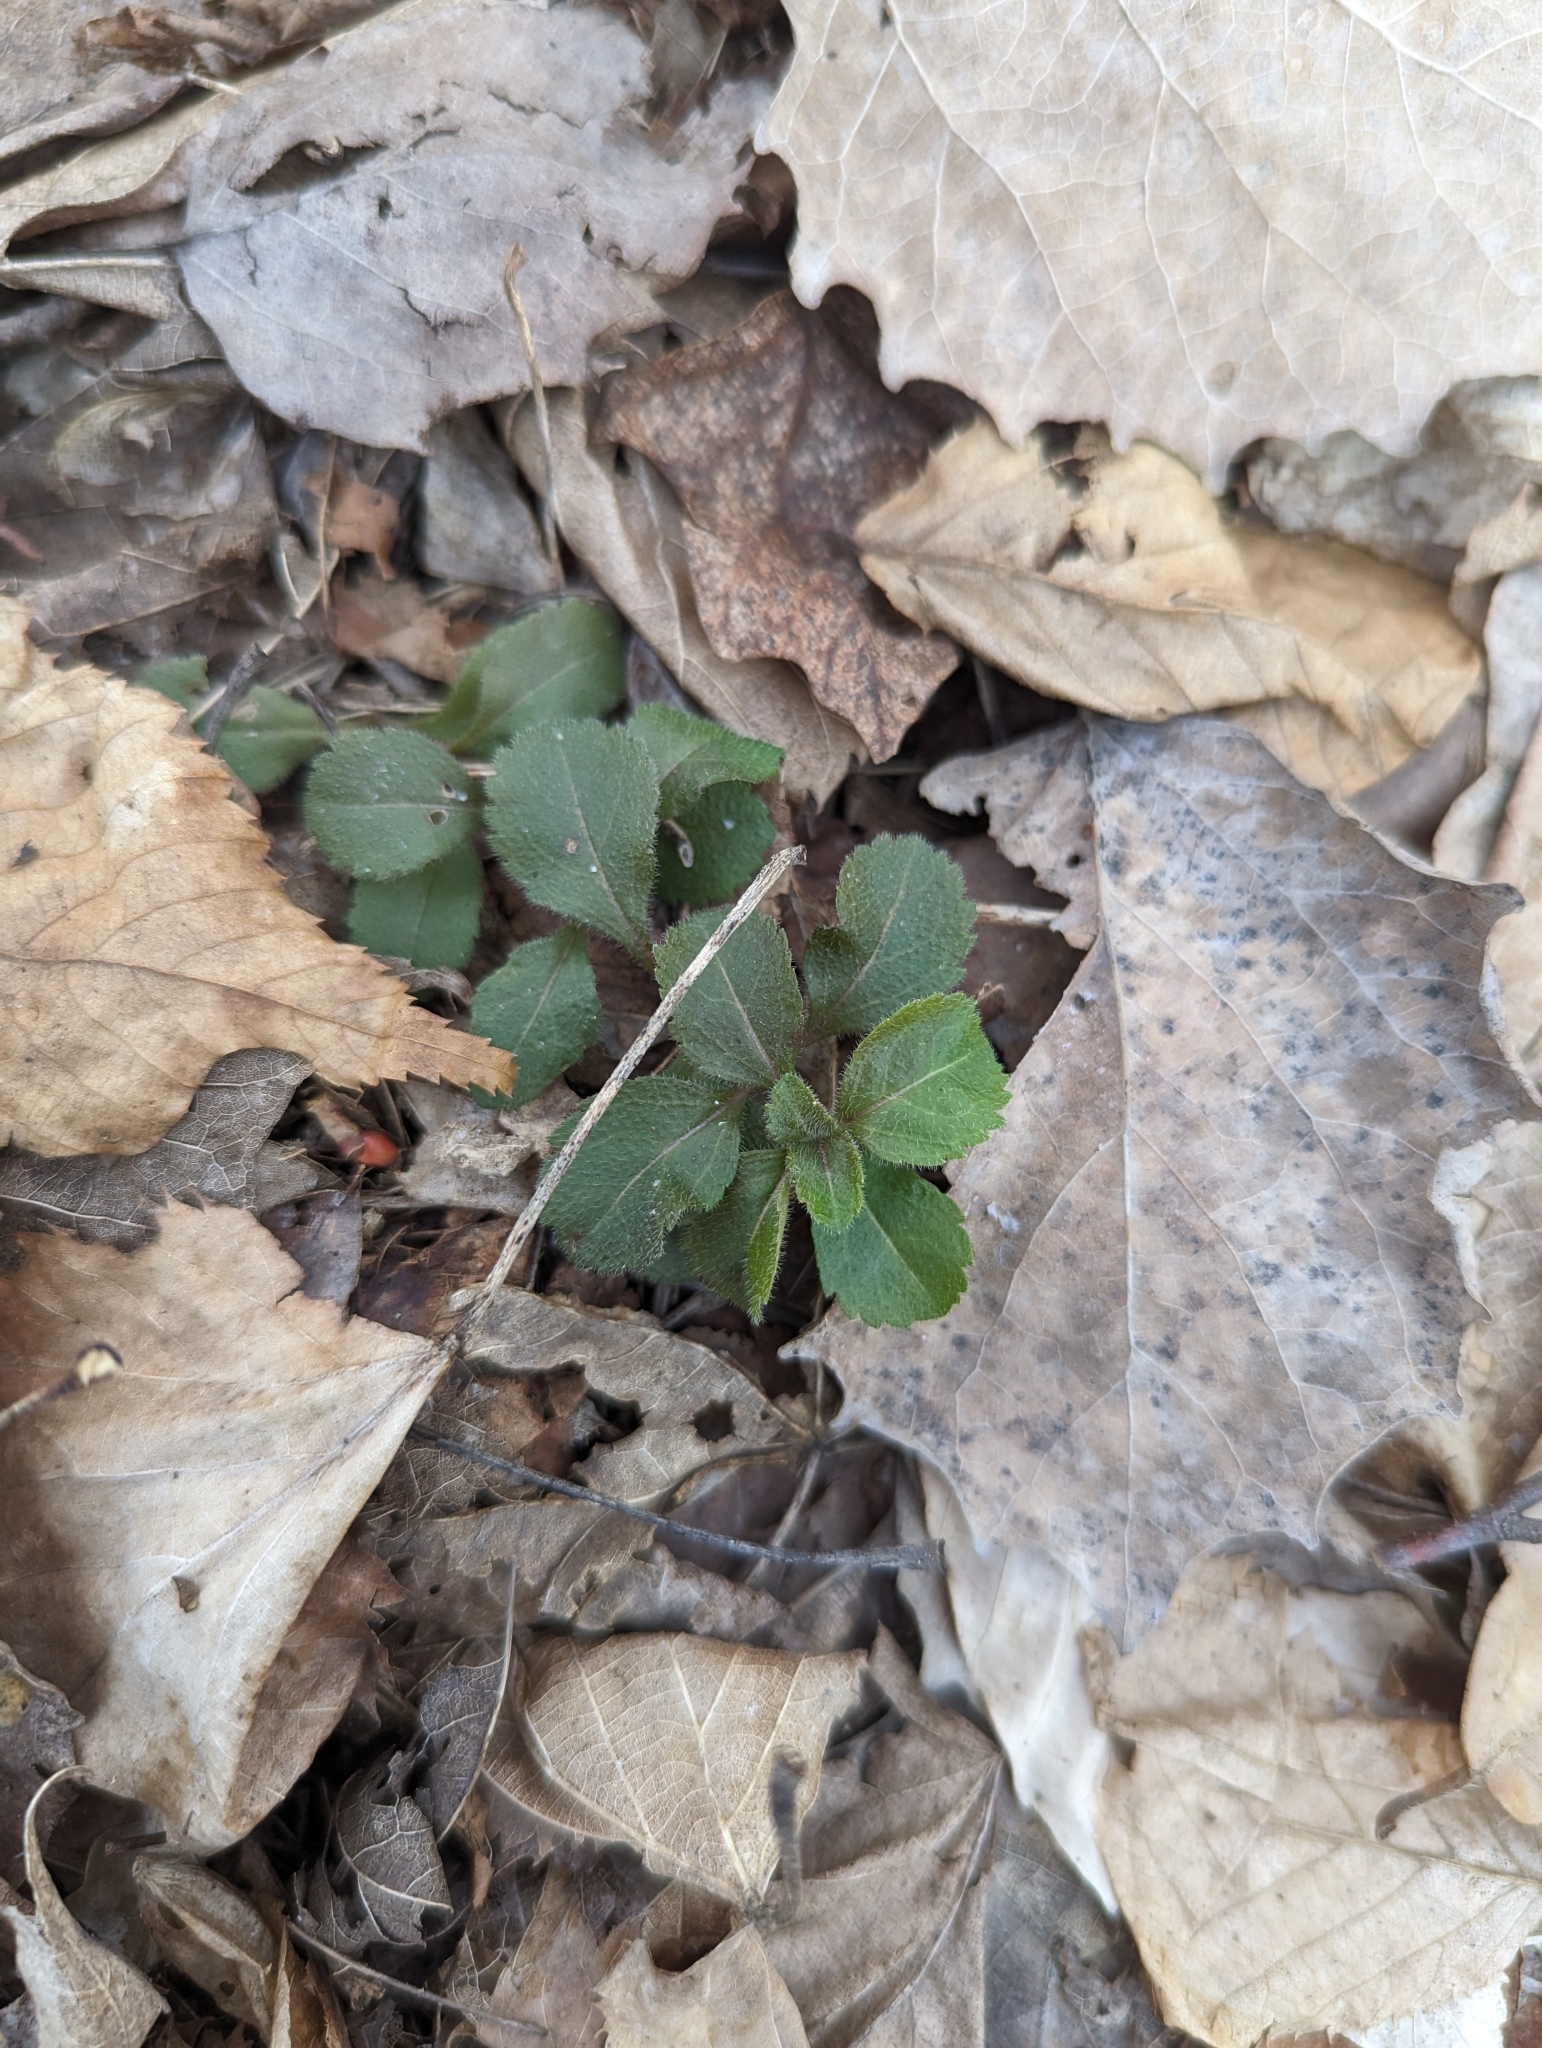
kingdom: Plantae
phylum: Tracheophyta
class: Magnoliopsida
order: Lamiales
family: Plantaginaceae
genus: Veronica
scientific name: Veronica officinalis
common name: Common speedwell
